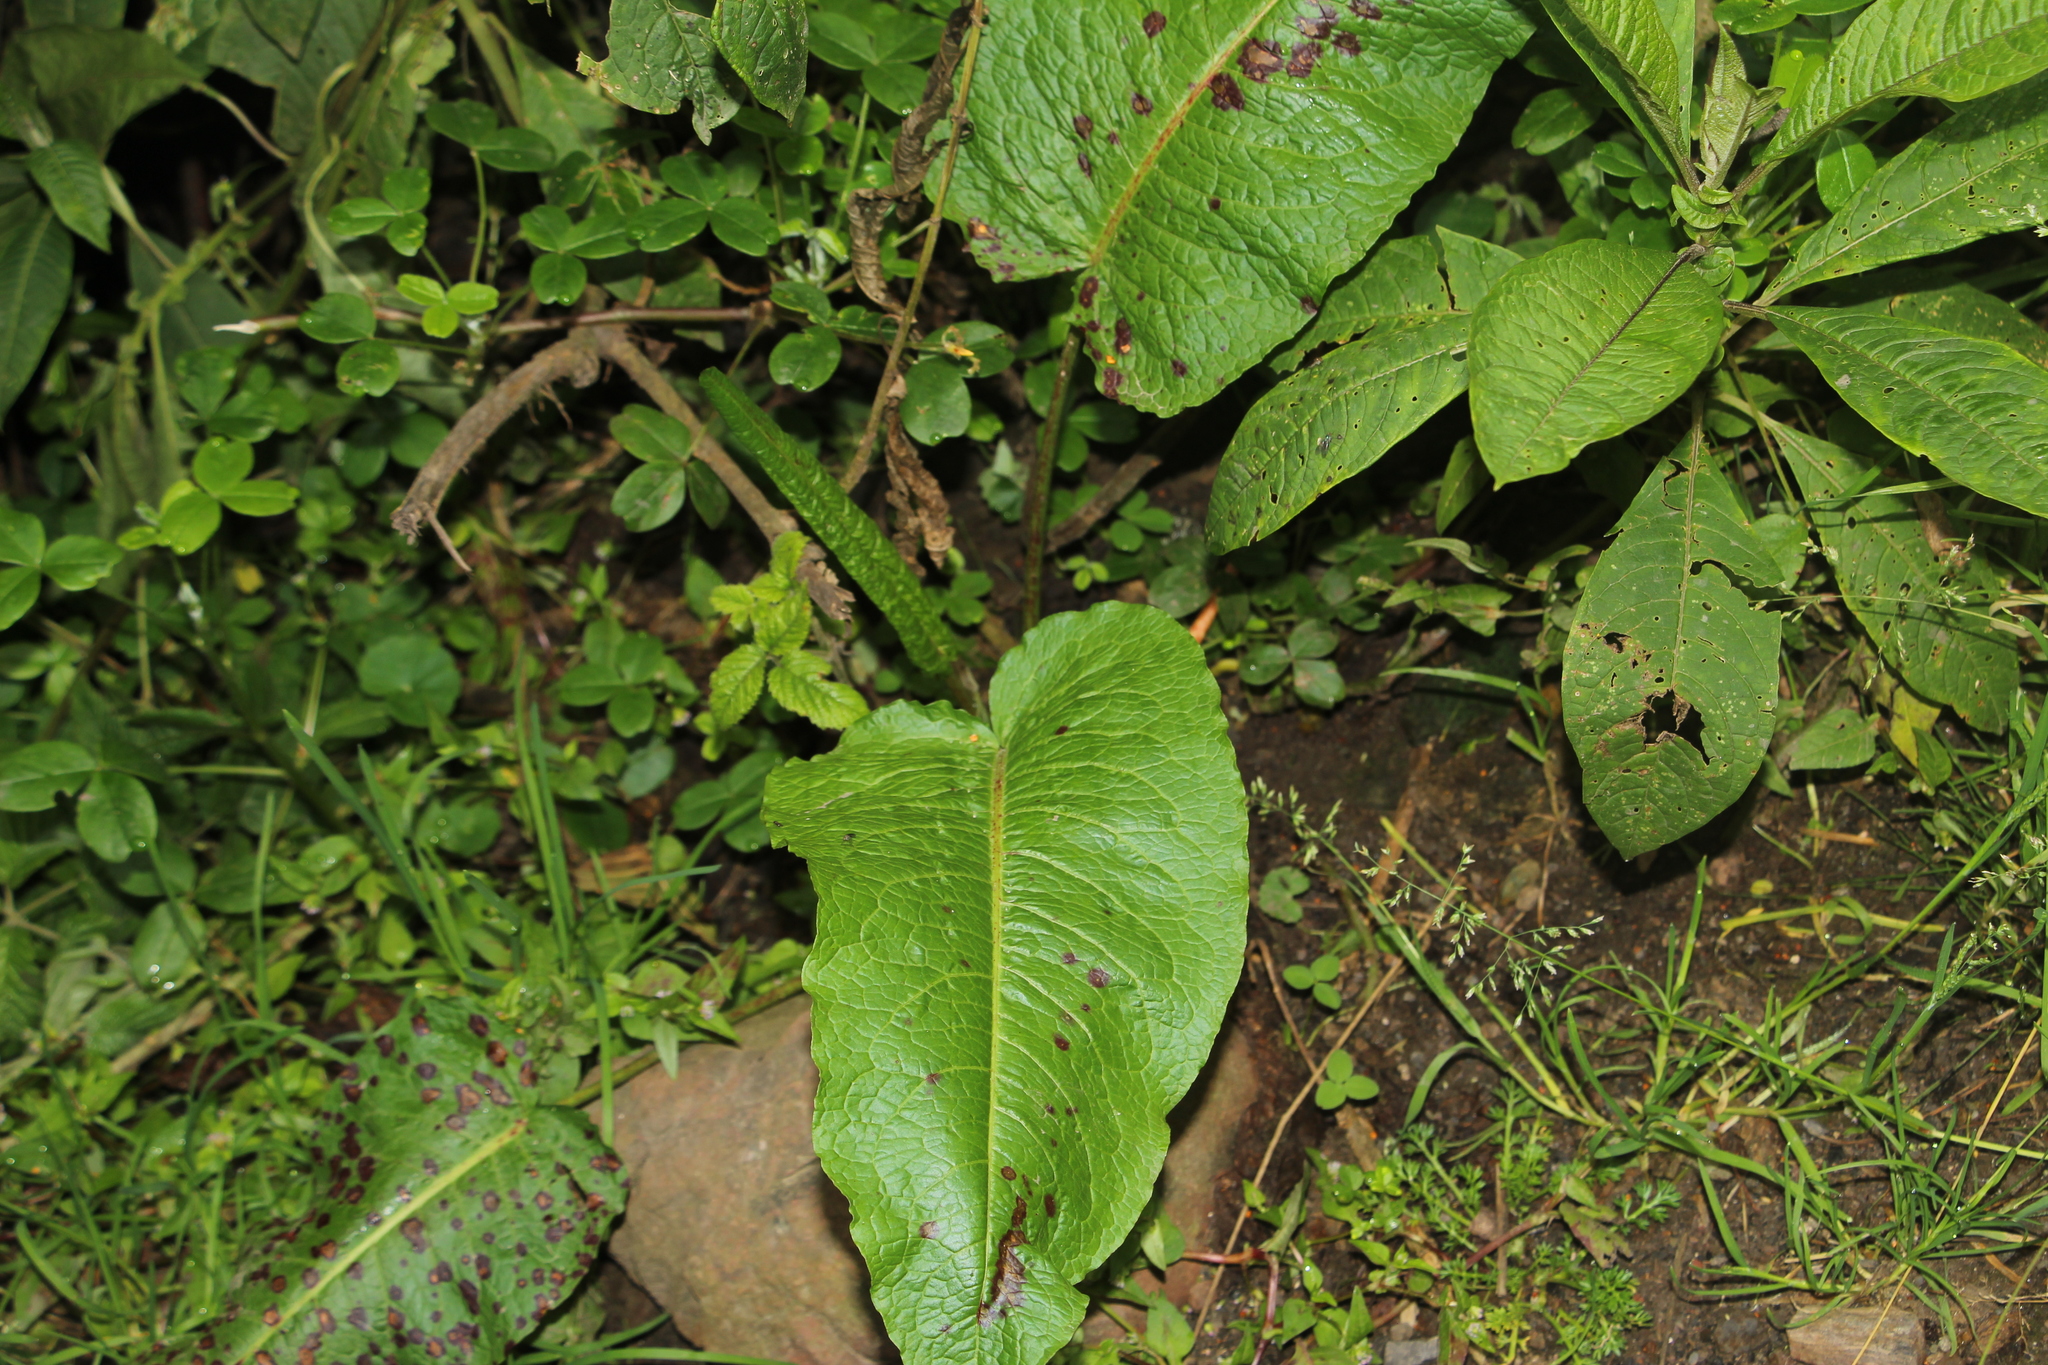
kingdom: Plantae
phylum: Tracheophyta
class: Magnoliopsida
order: Caryophyllales
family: Polygonaceae
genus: Rumex
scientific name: Rumex obtusifolius
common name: Bitter dock
